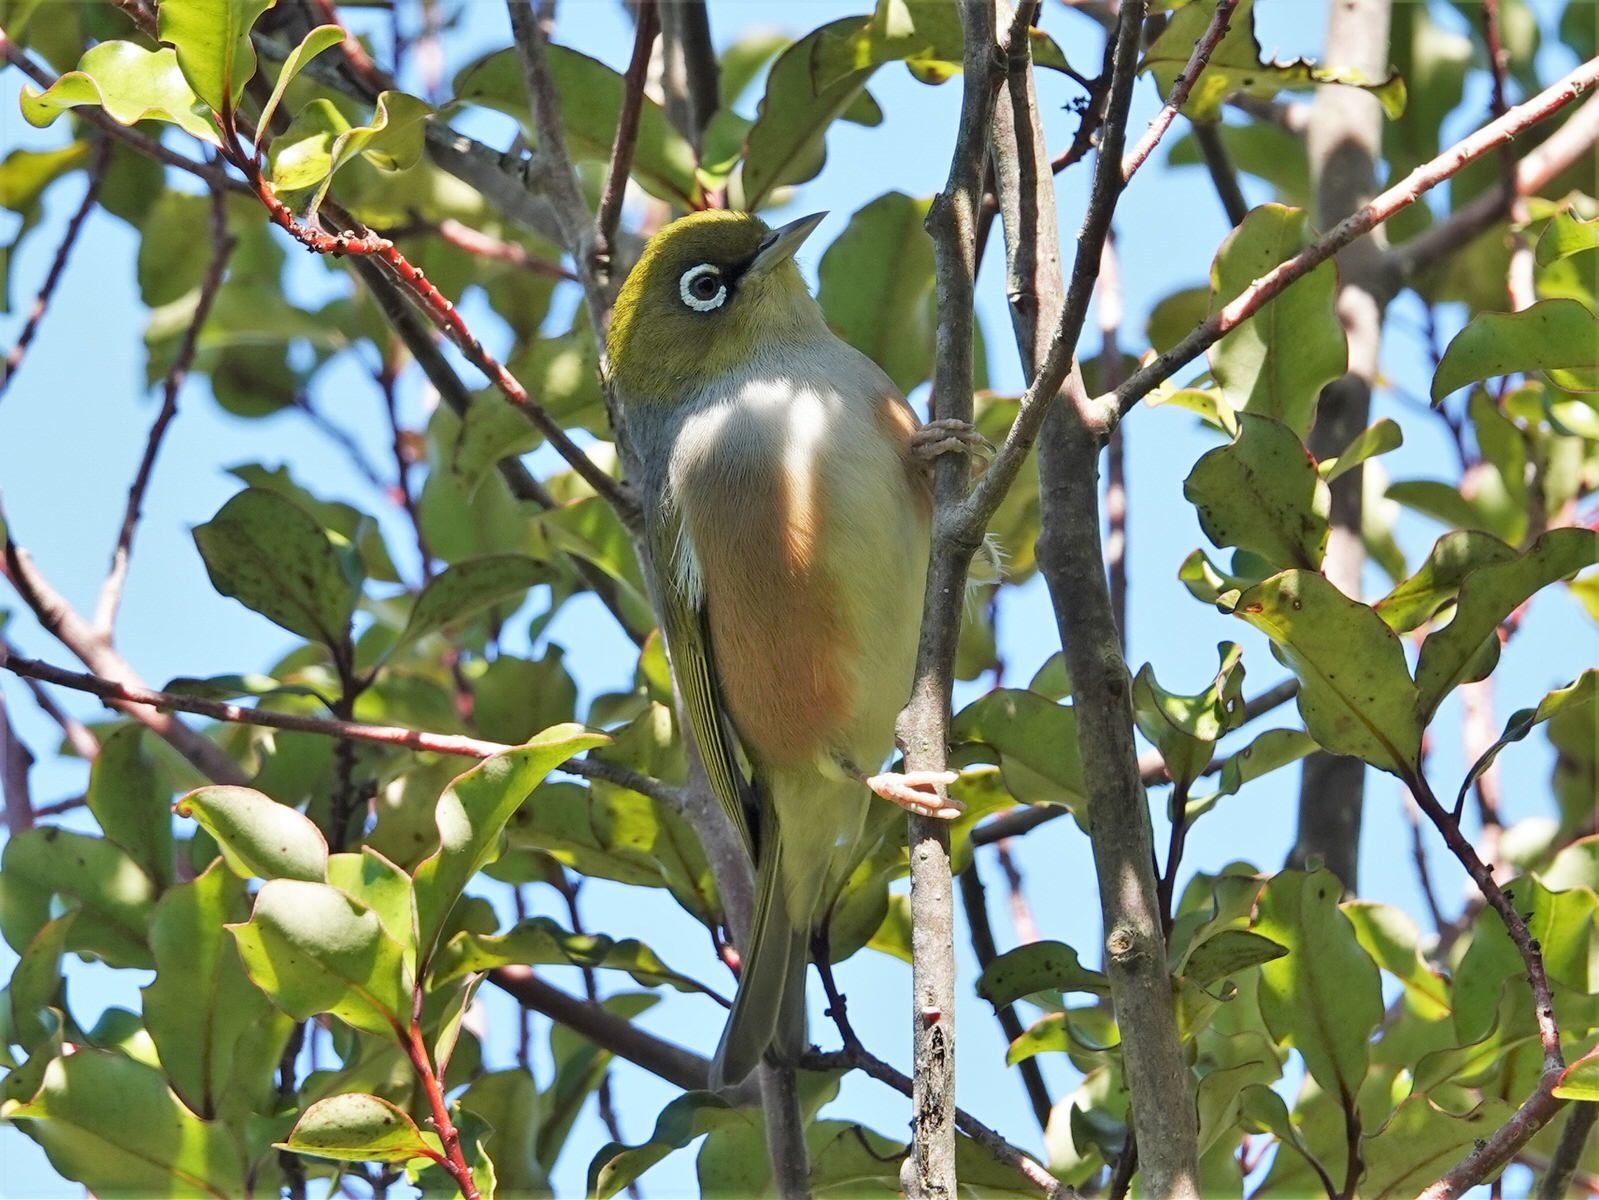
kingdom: Animalia
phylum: Chordata
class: Aves
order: Passeriformes
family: Zosteropidae
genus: Zosterops
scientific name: Zosterops lateralis
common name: Silvereye
